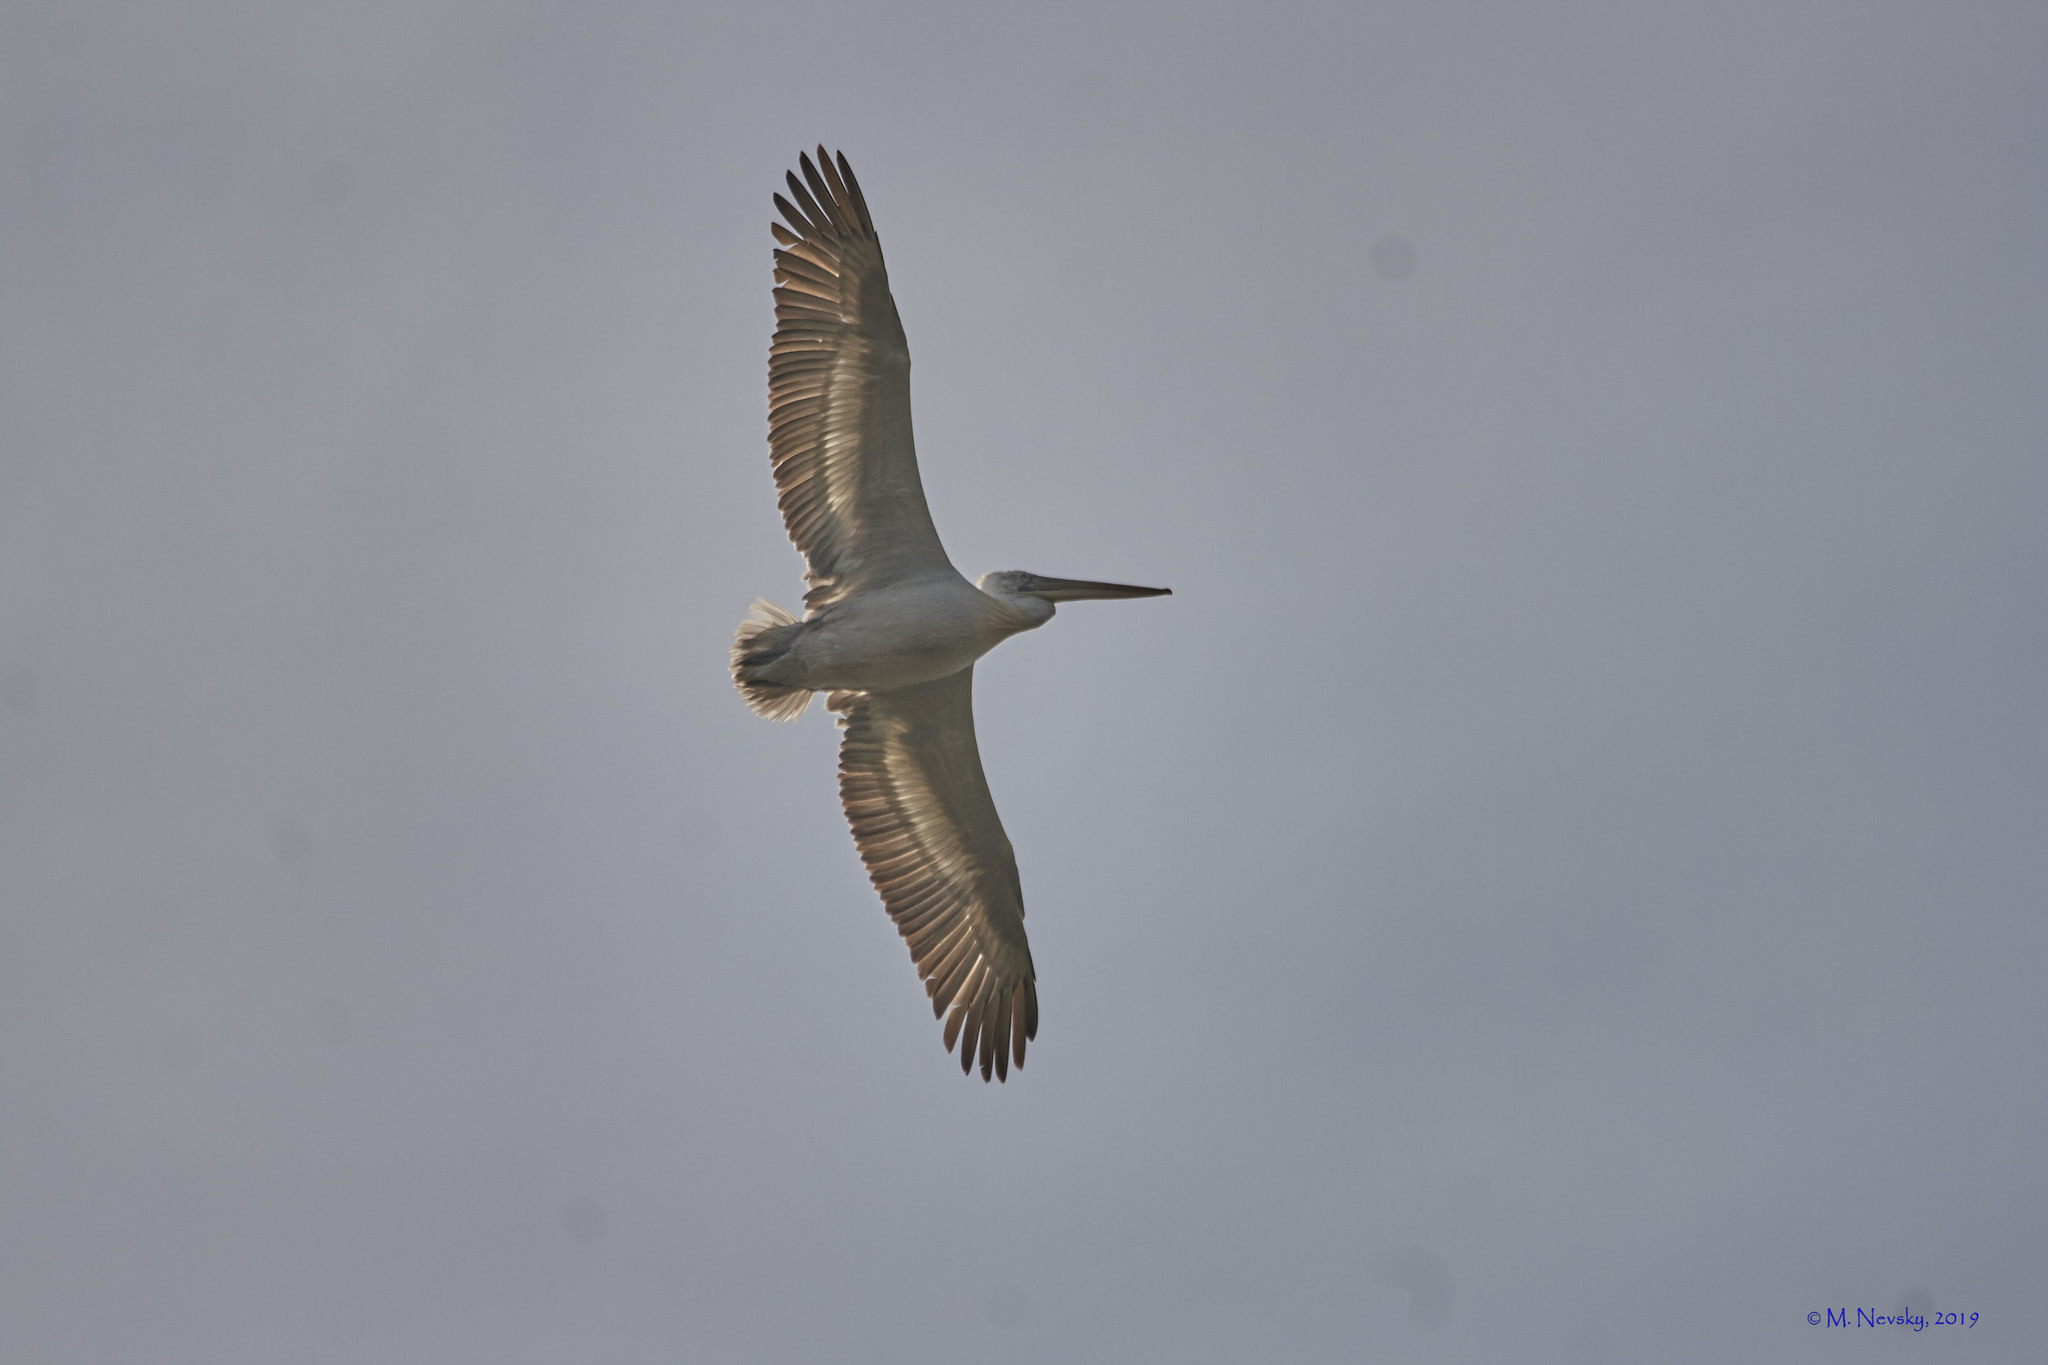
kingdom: Animalia
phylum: Chordata
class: Aves
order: Pelecaniformes
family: Pelecanidae
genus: Pelecanus
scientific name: Pelecanus crispus
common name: Dalmatian pelican
